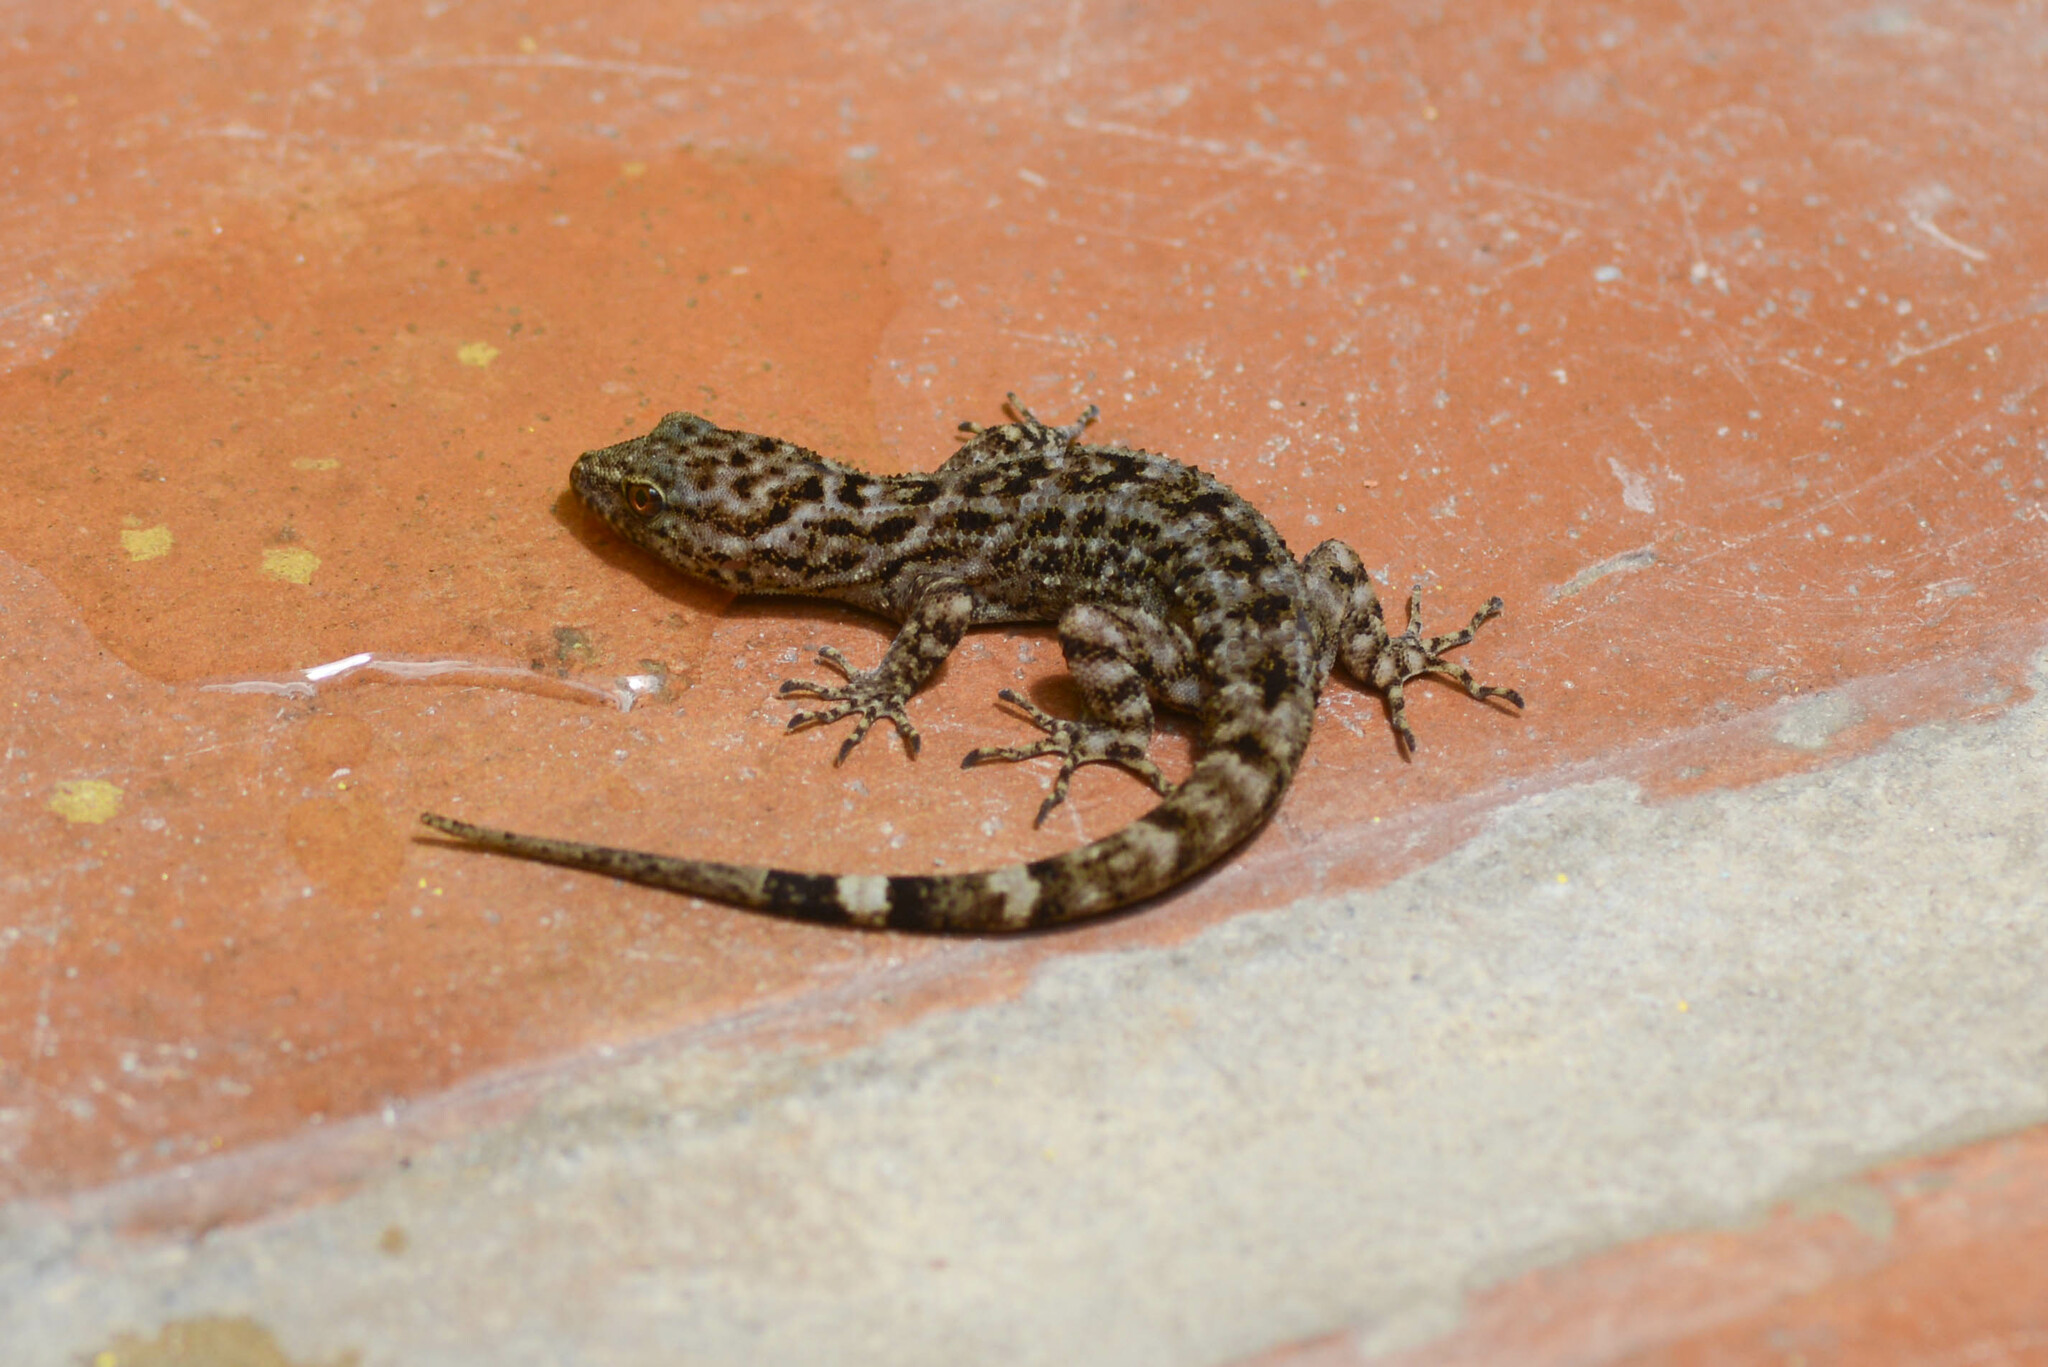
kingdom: Animalia
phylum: Chordata
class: Squamata
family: Phyllodactylidae
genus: Gymnodactylus
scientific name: Gymnodactylus darwinii
